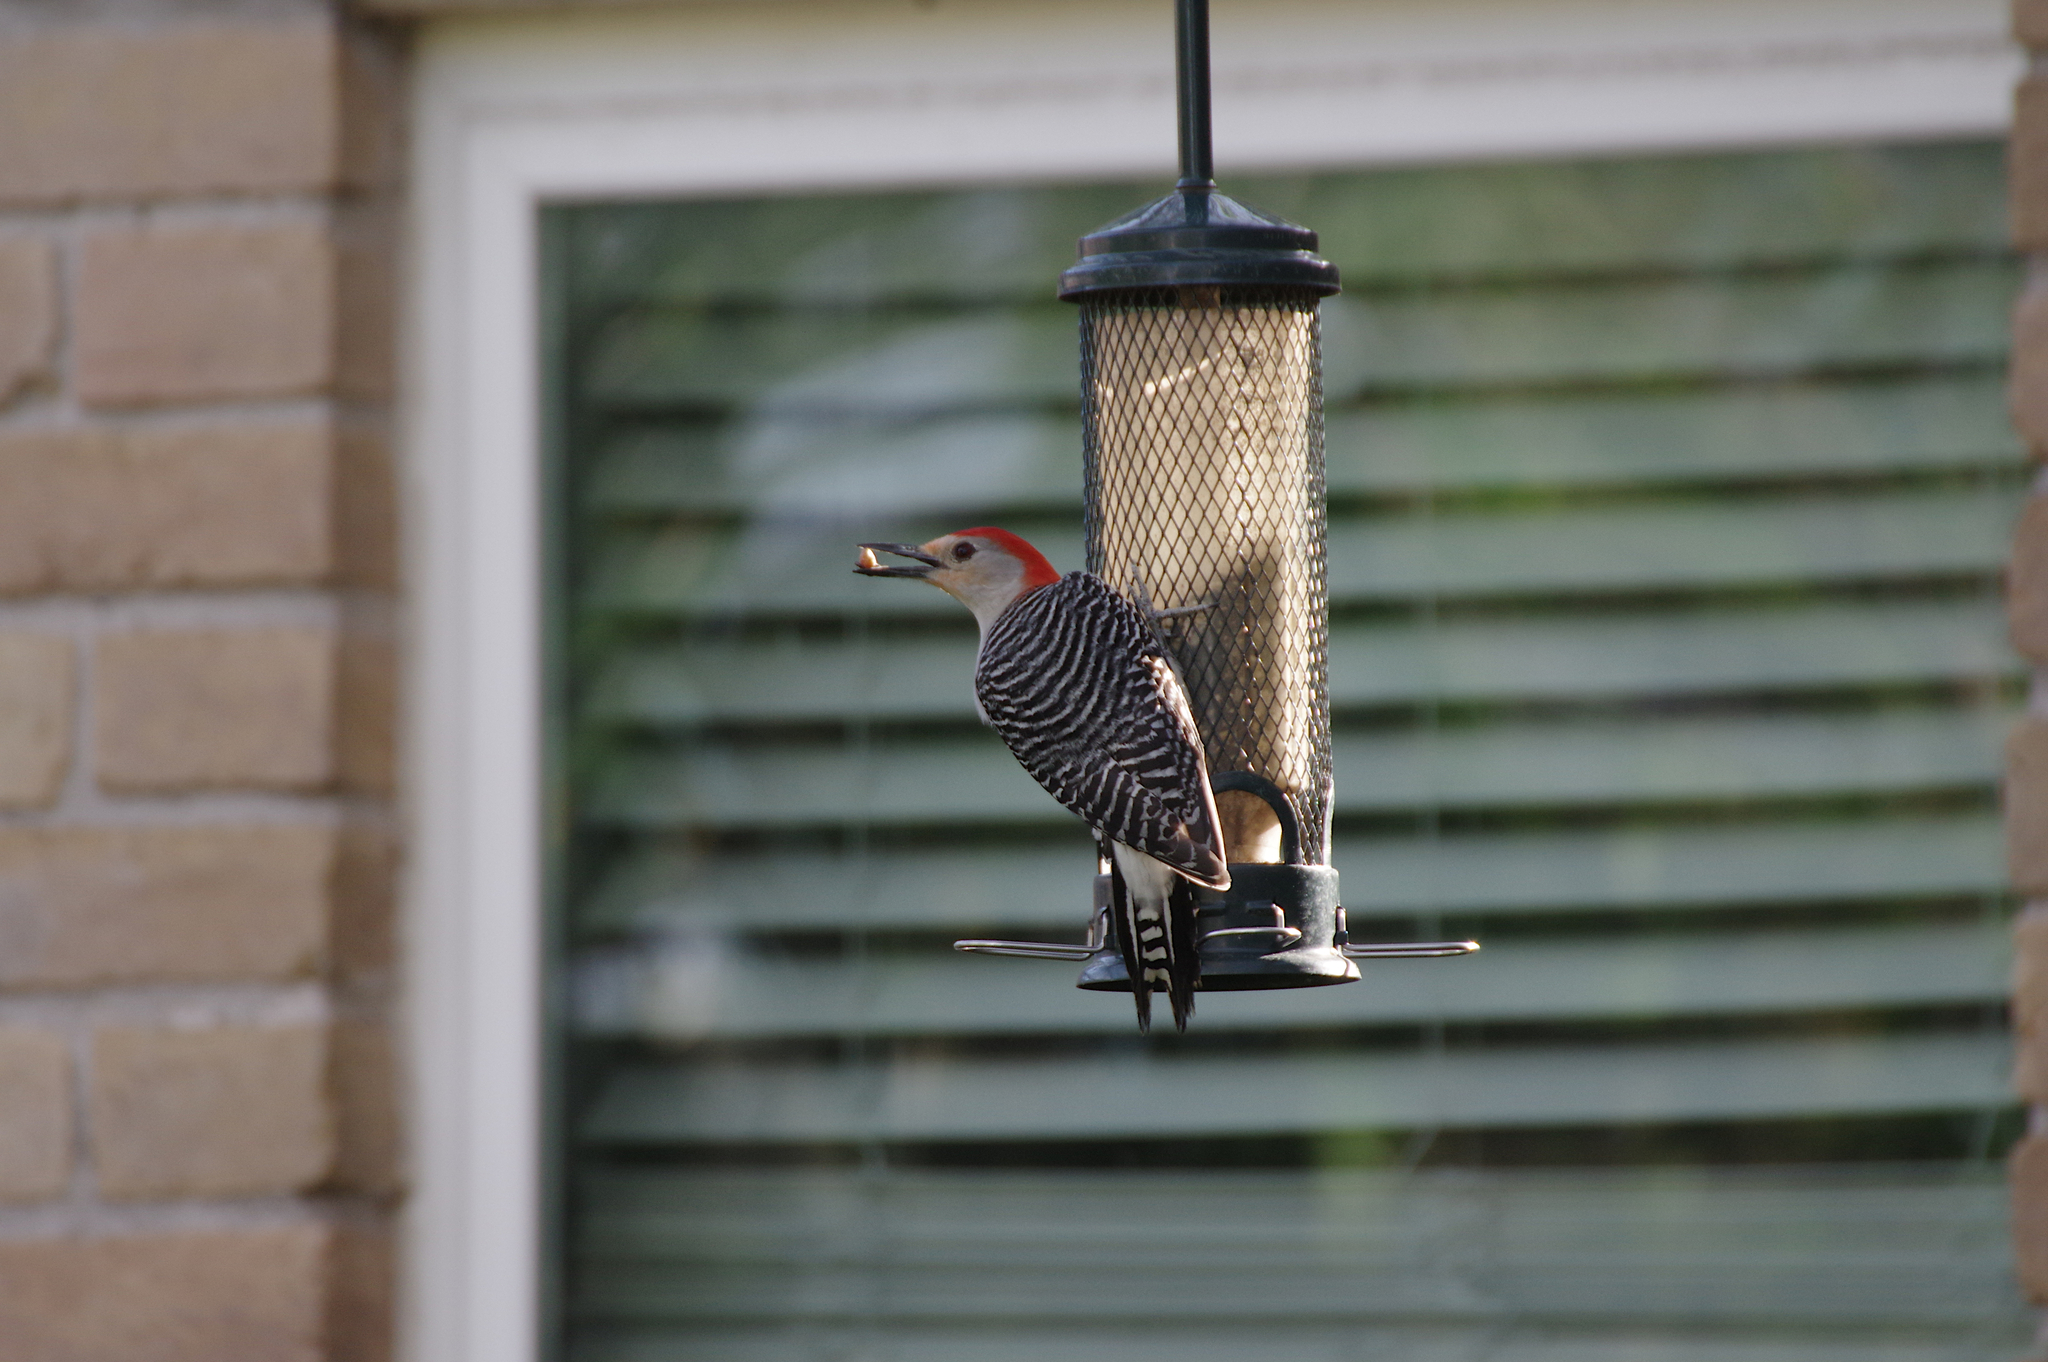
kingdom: Animalia
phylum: Chordata
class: Aves
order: Piciformes
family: Picidae
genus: Melanerpes
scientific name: Melanerpes carolinus
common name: Red-bellied woodpecker
